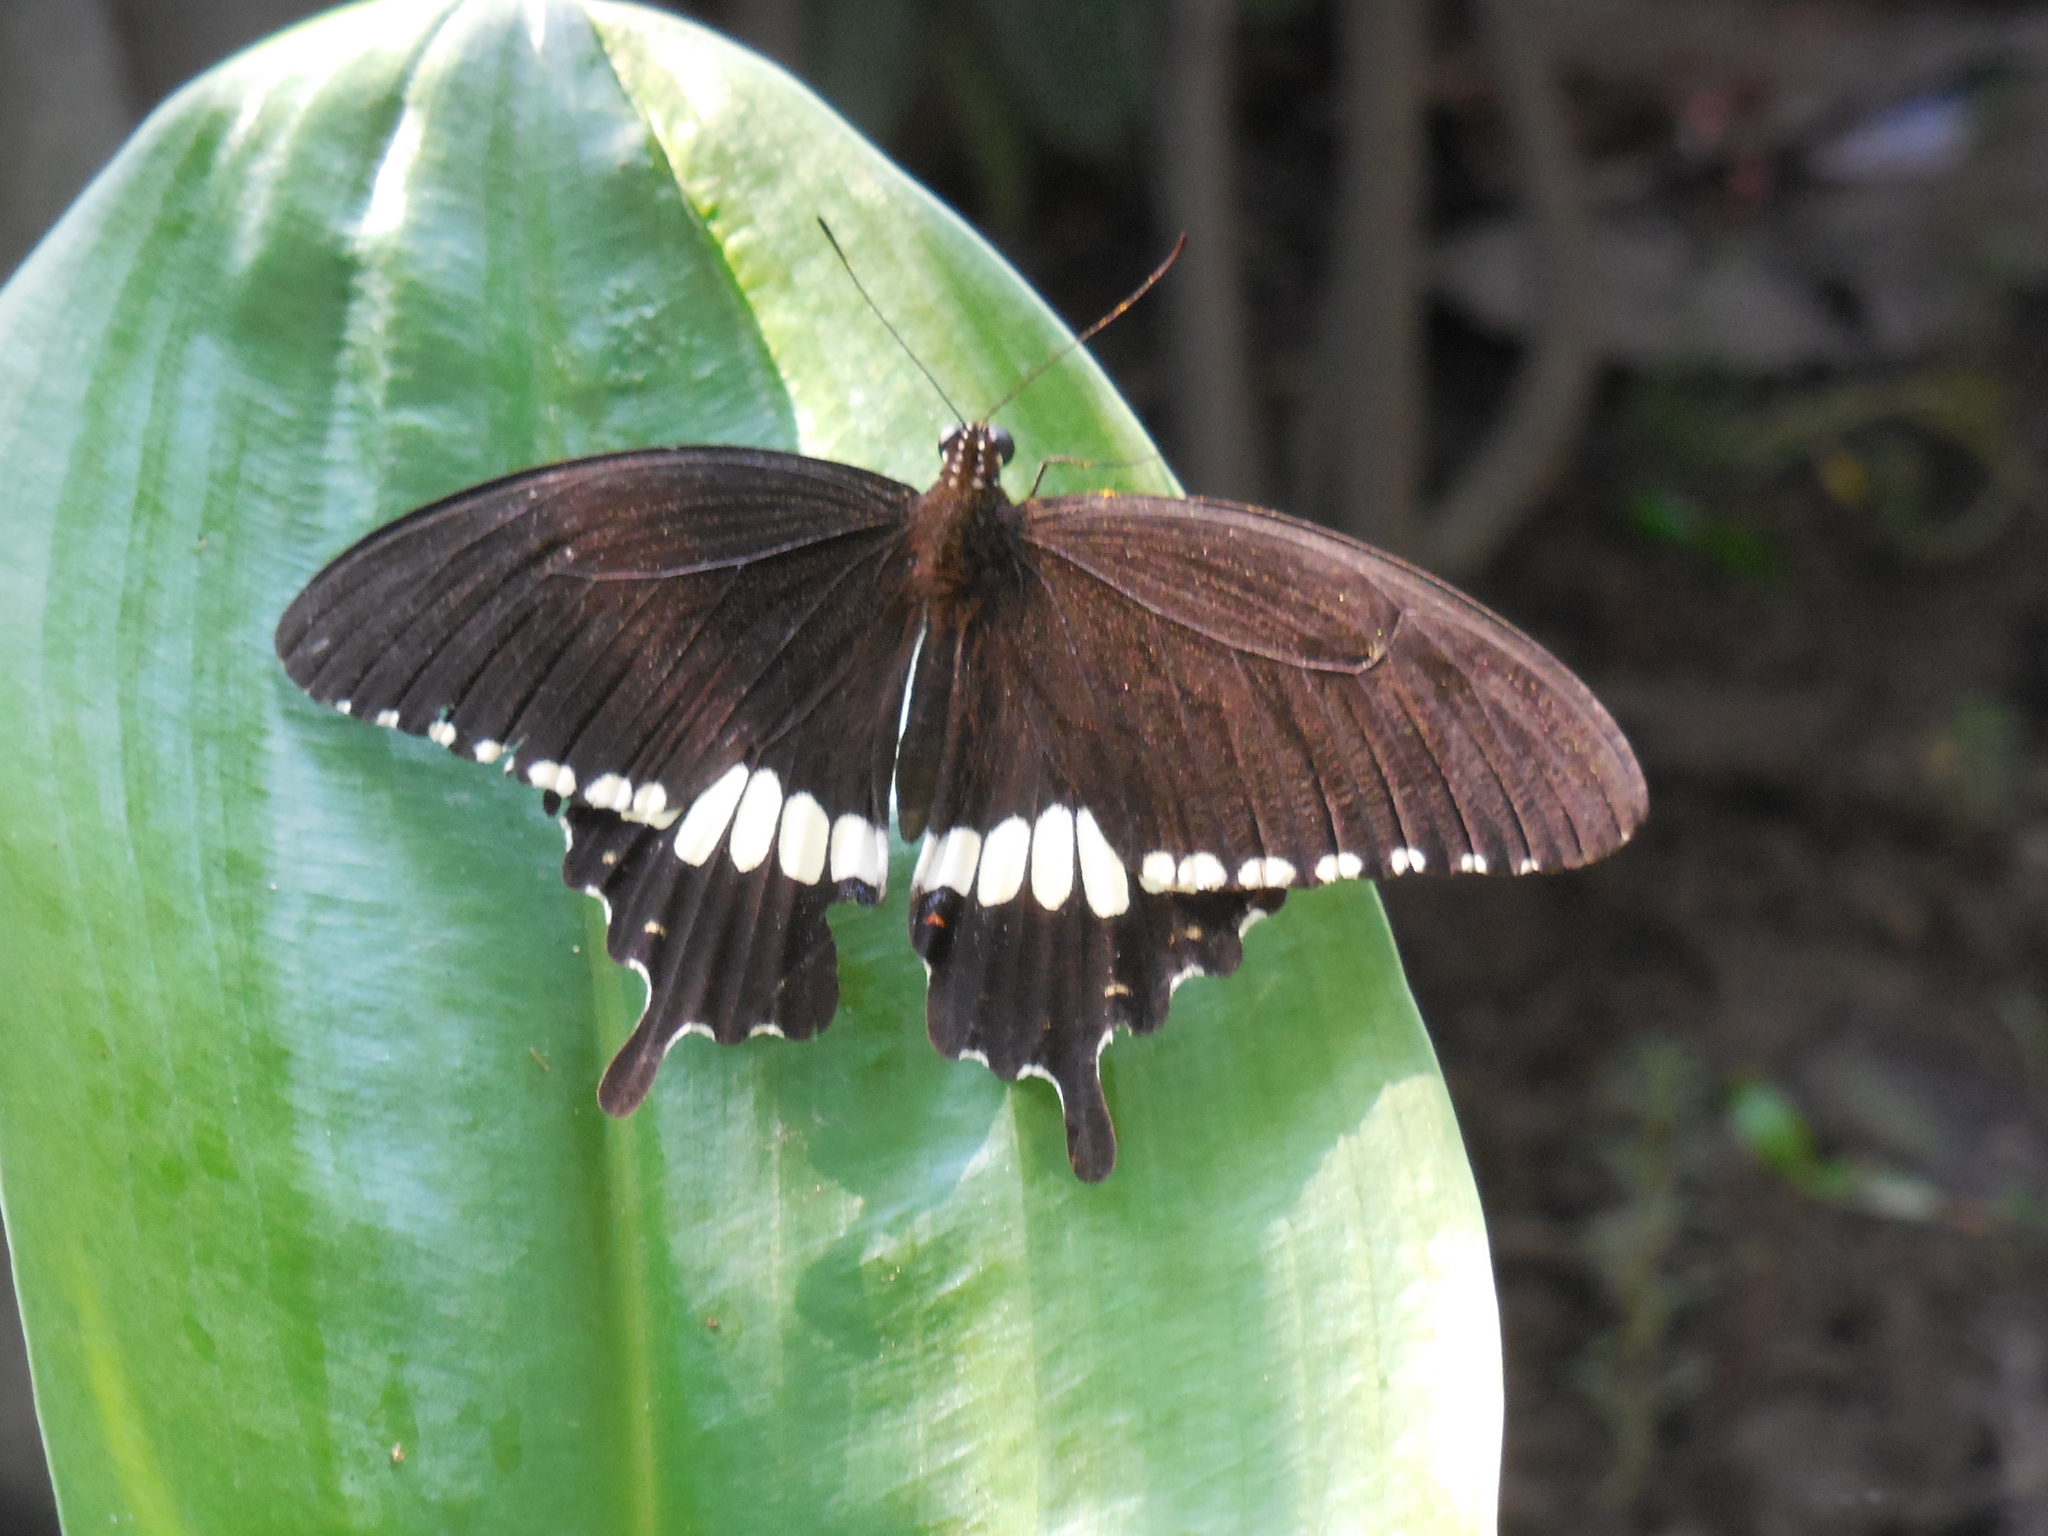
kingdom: Animalia
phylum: Arthropoda
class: Insecta
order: Lepidoptera
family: Papilionidae
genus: Papilio
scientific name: Papilio polytes
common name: Common mormon
